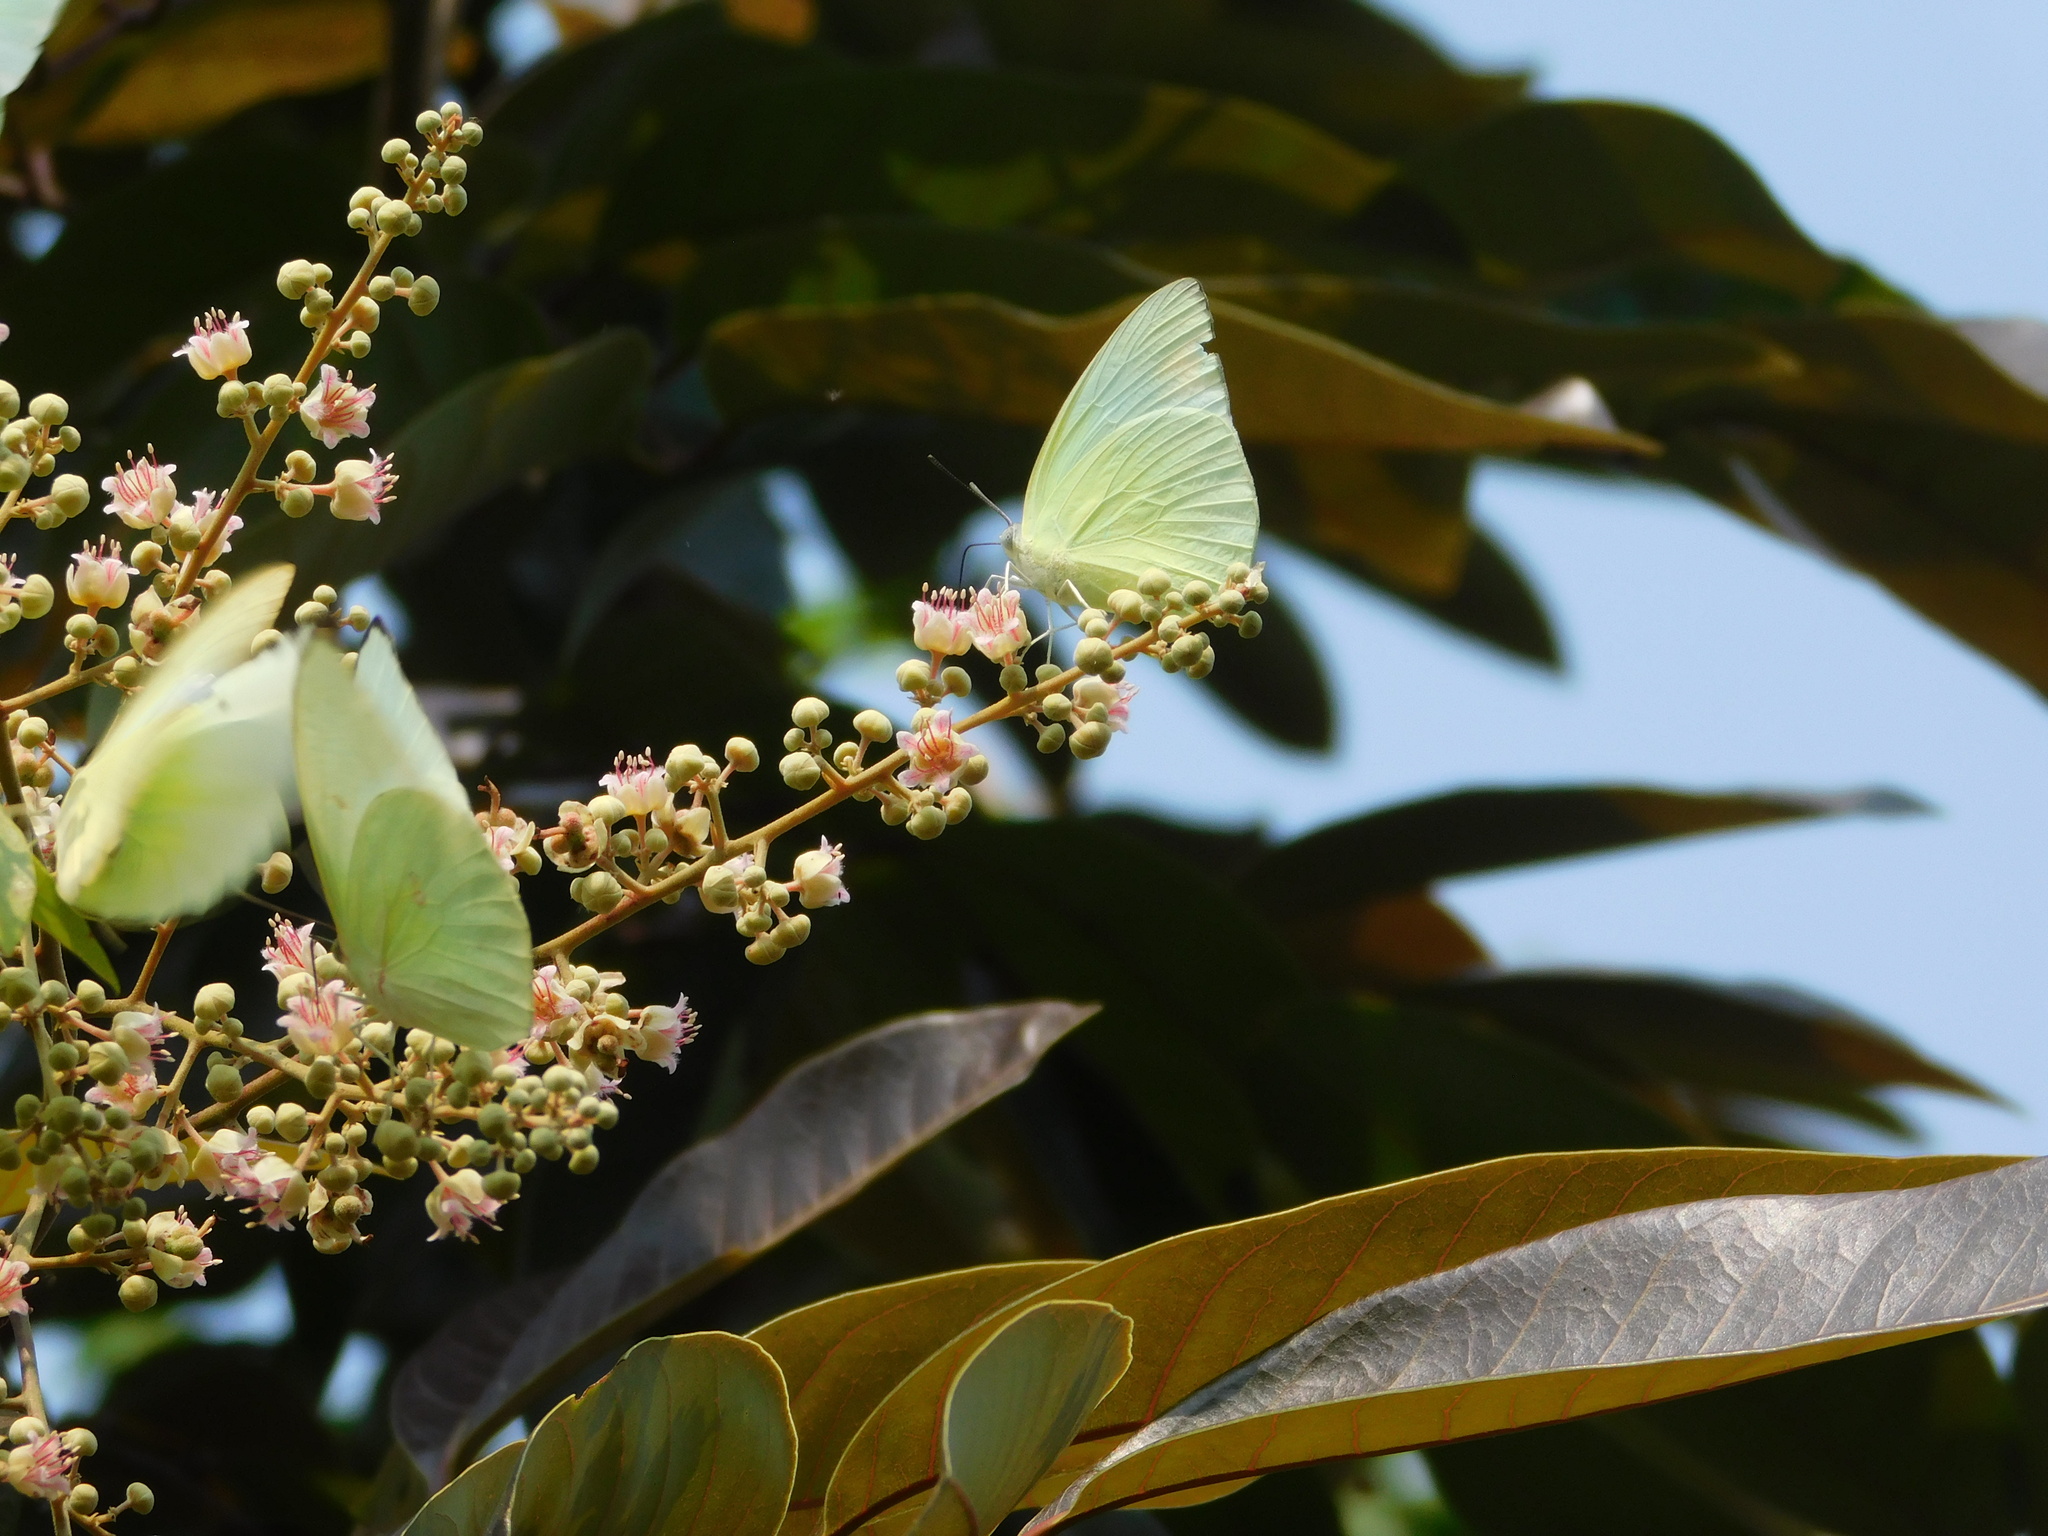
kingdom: Animalia
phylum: Arthropoda
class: Insecta
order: Lepidoptera
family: Pieridae
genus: Catopsilia
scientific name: Catopsilia pomona
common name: Common emigrant
